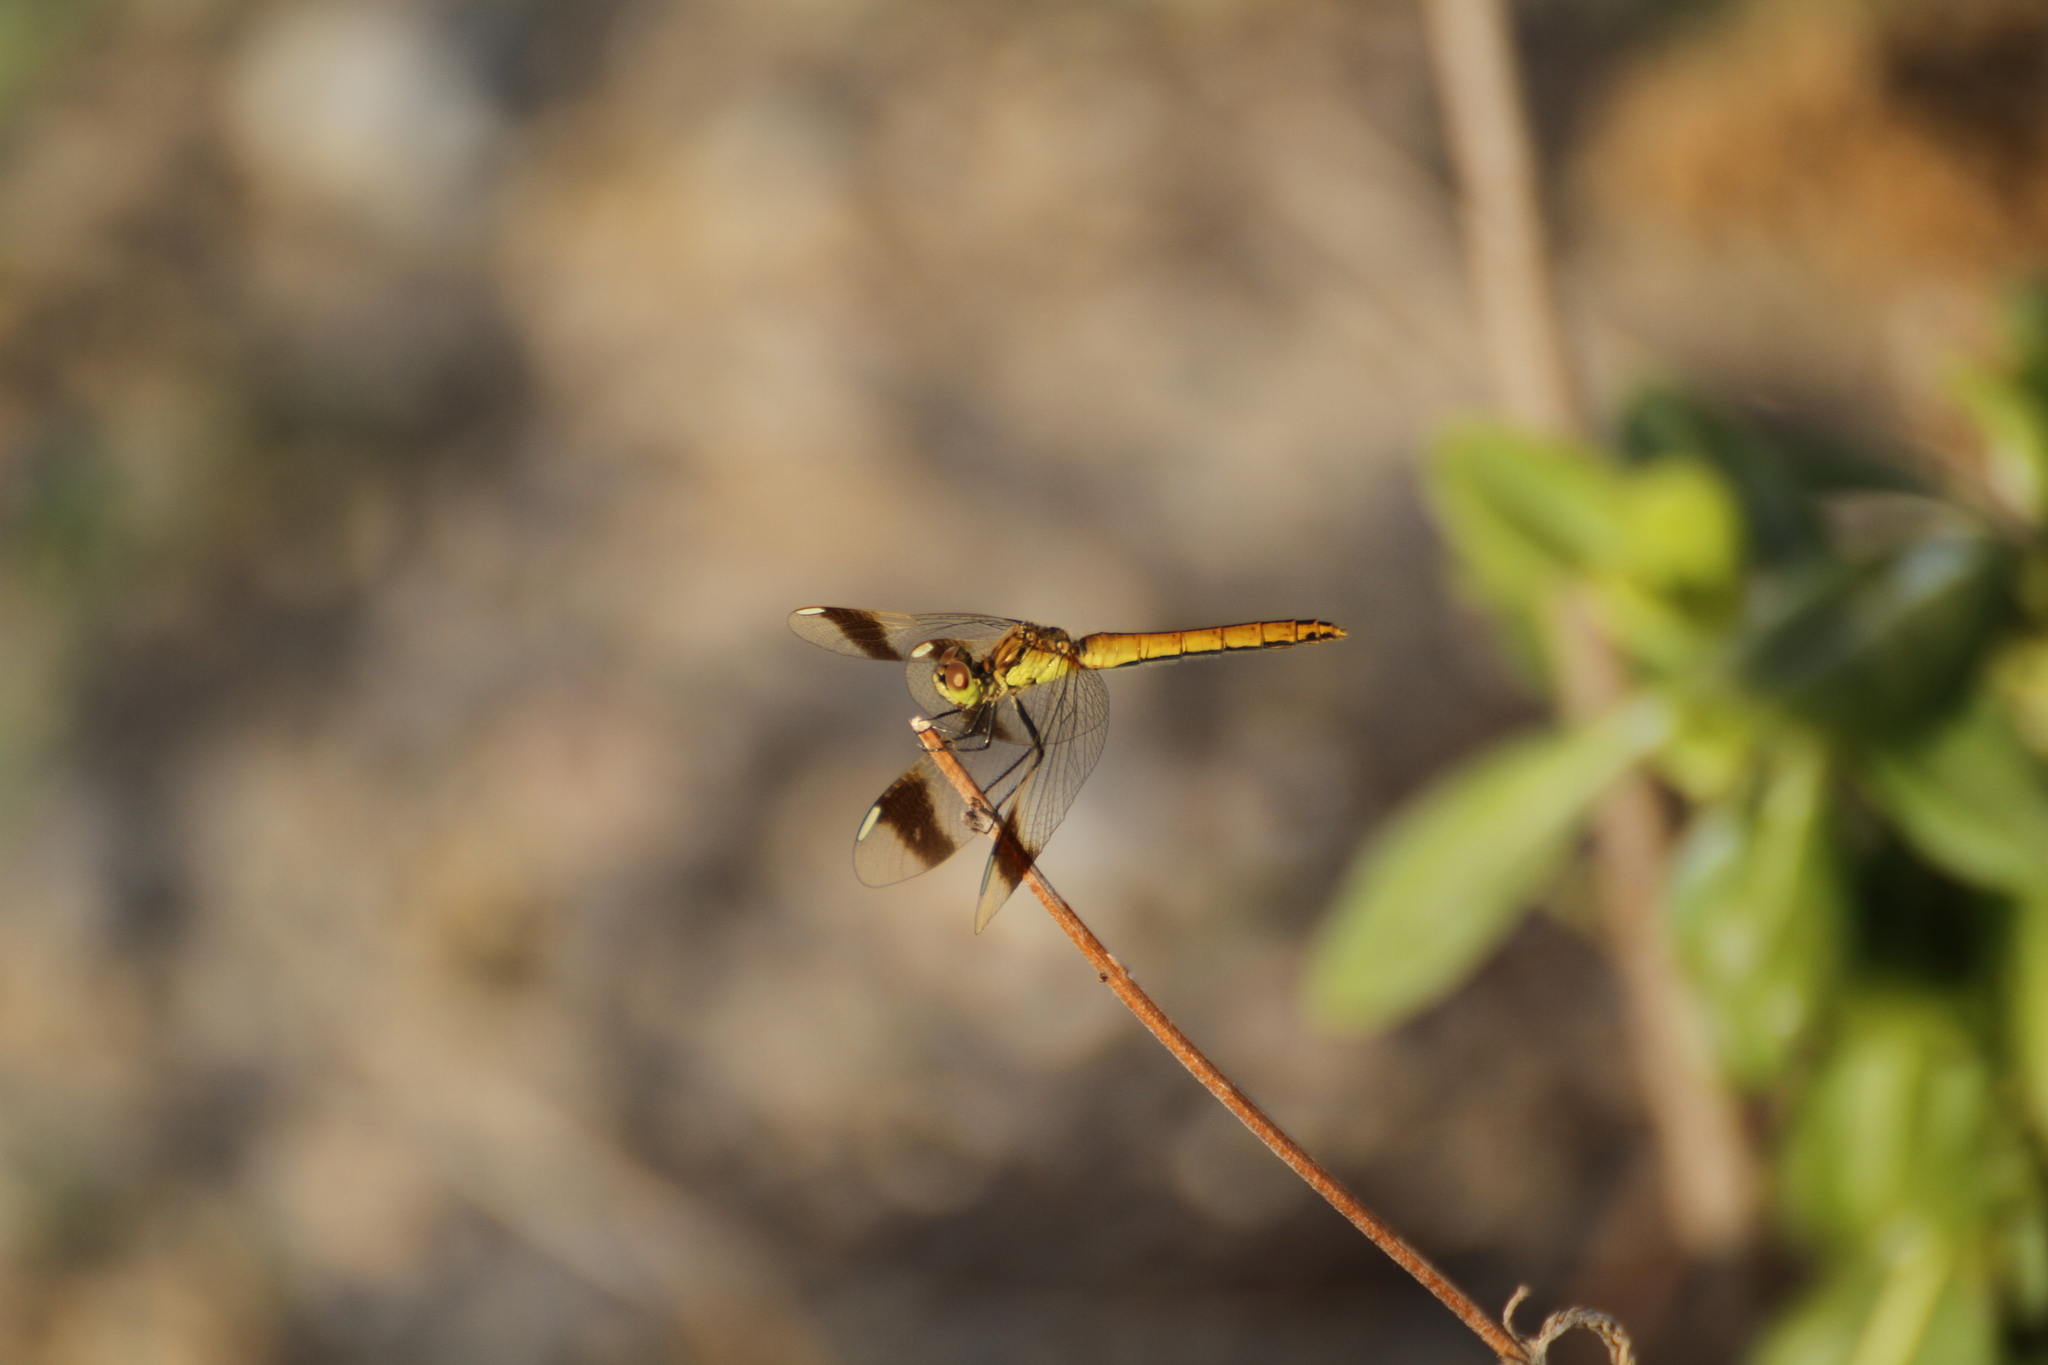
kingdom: Animalia
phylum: Arthropoda
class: Insecta
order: Odonata
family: Libellulidae
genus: Sympetrum
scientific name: Sympetrum pedemontanum
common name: Banded darter
